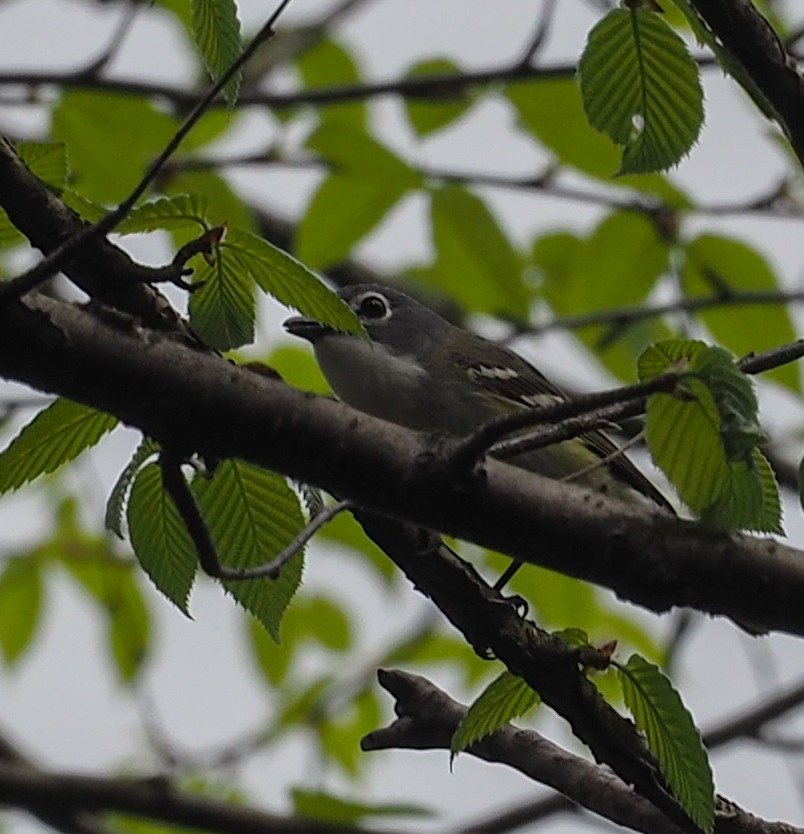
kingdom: Animalia
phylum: Chordata
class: Aves
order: Passeriformes
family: Vireonidae
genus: Vireo
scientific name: Vireo solitarius
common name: Blue-headed vireo
